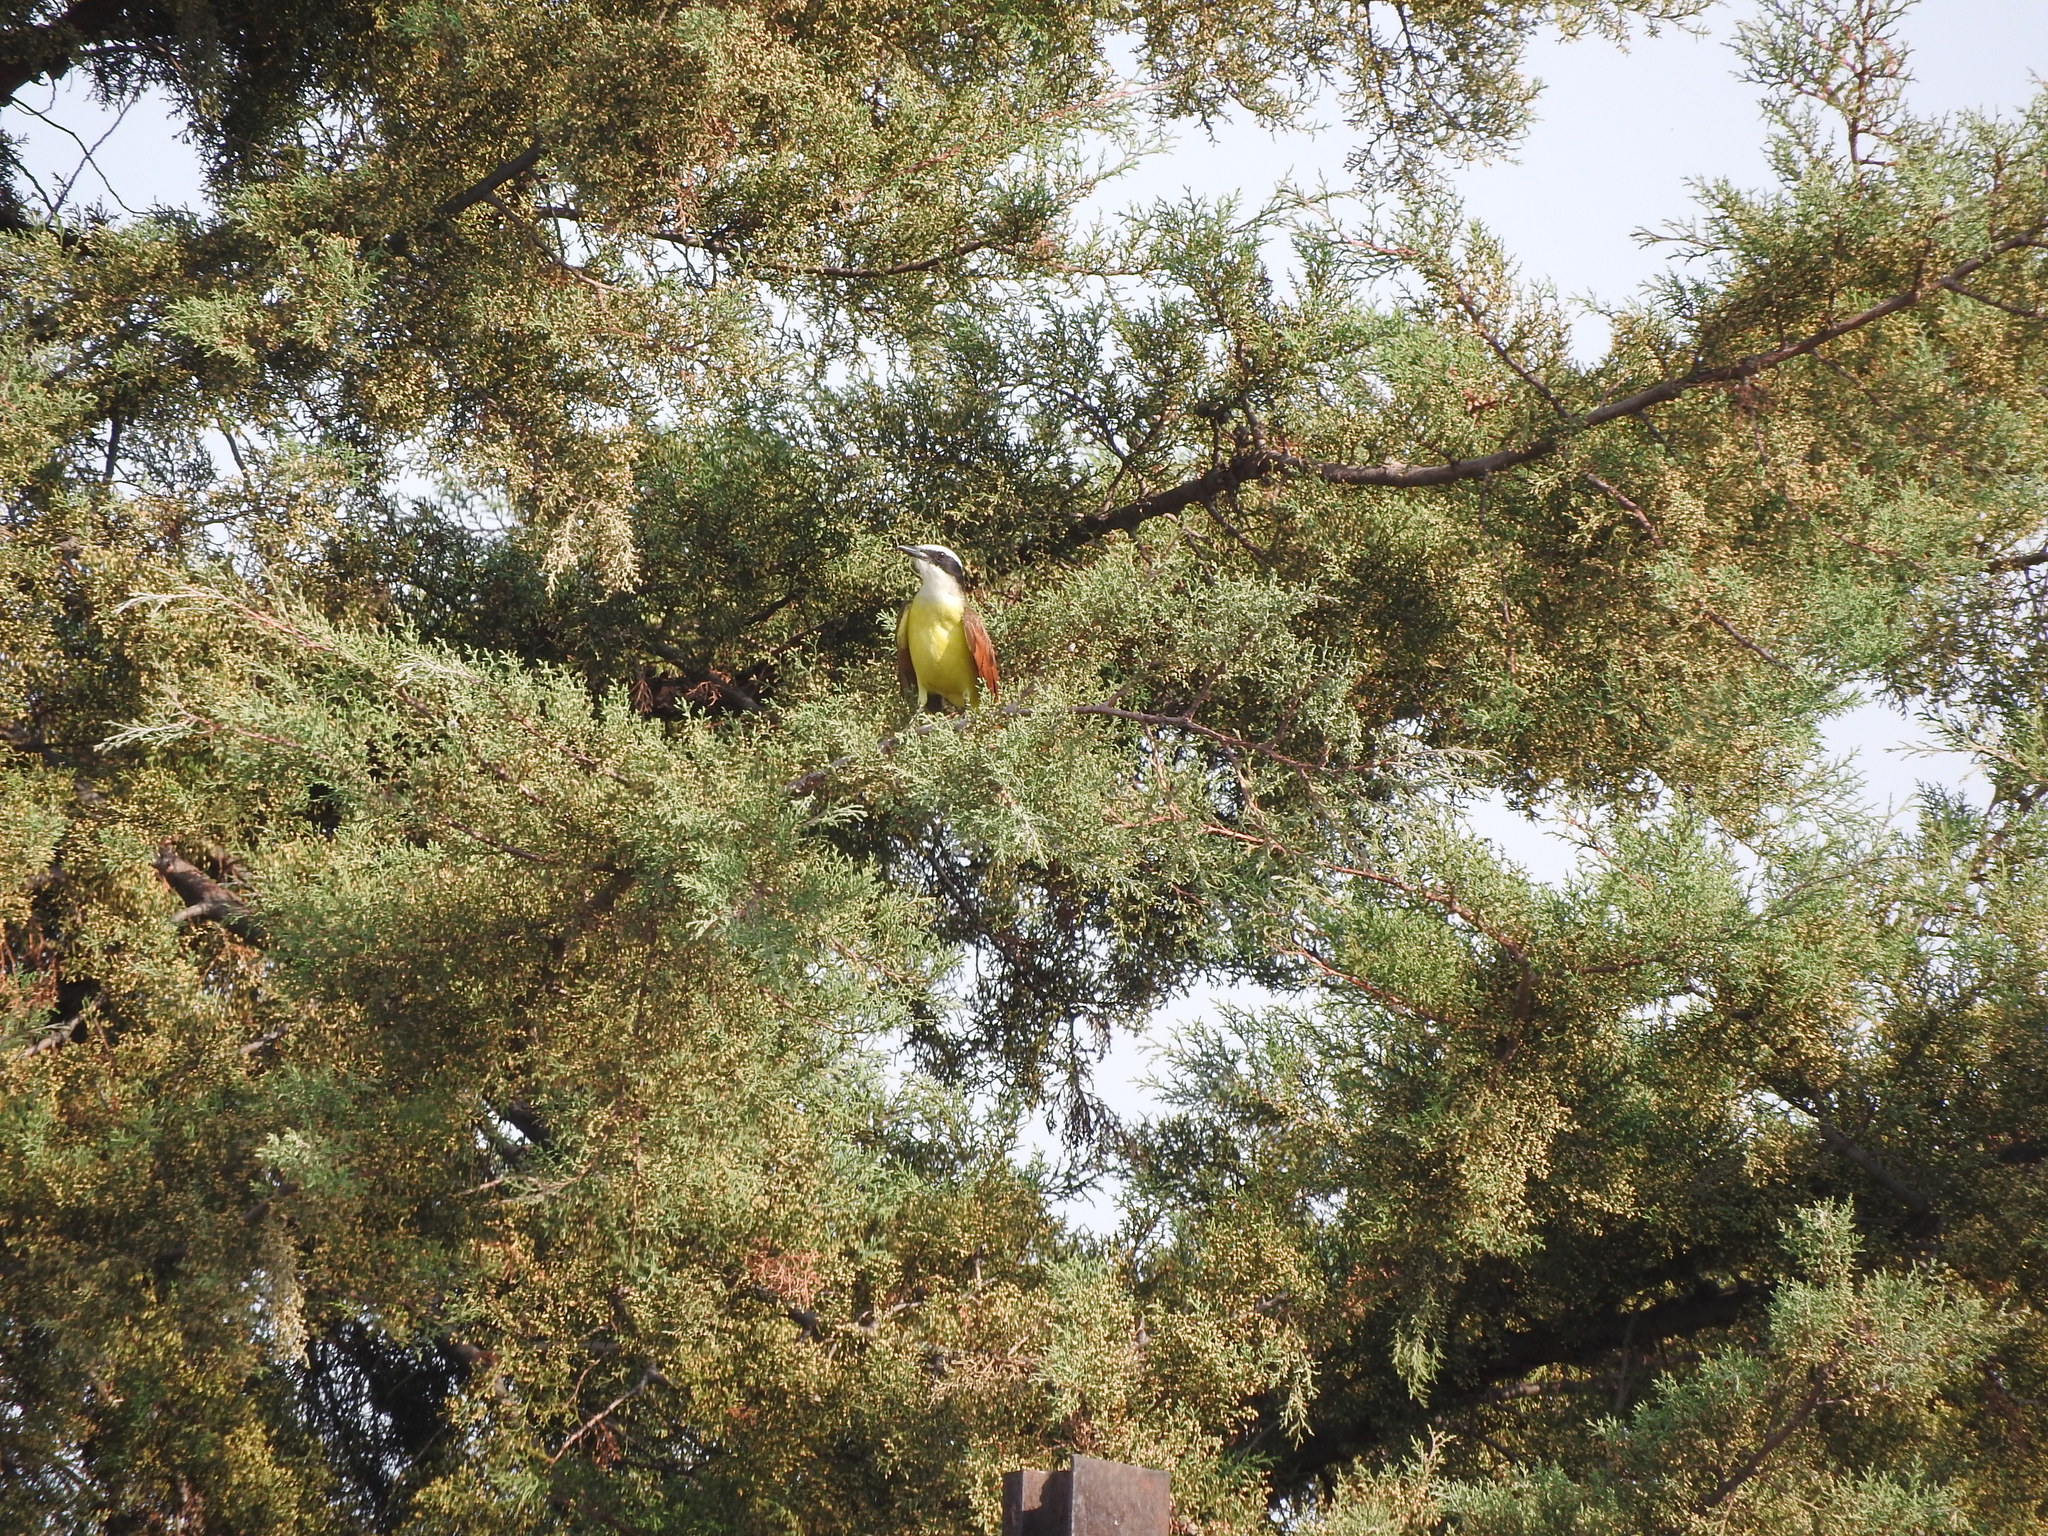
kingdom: Animalia
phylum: Chordata
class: Aves
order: Passeriformes
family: Tyrannidae
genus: Pitangus
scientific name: Pitangus sulphuratus
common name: Great kiskadee
